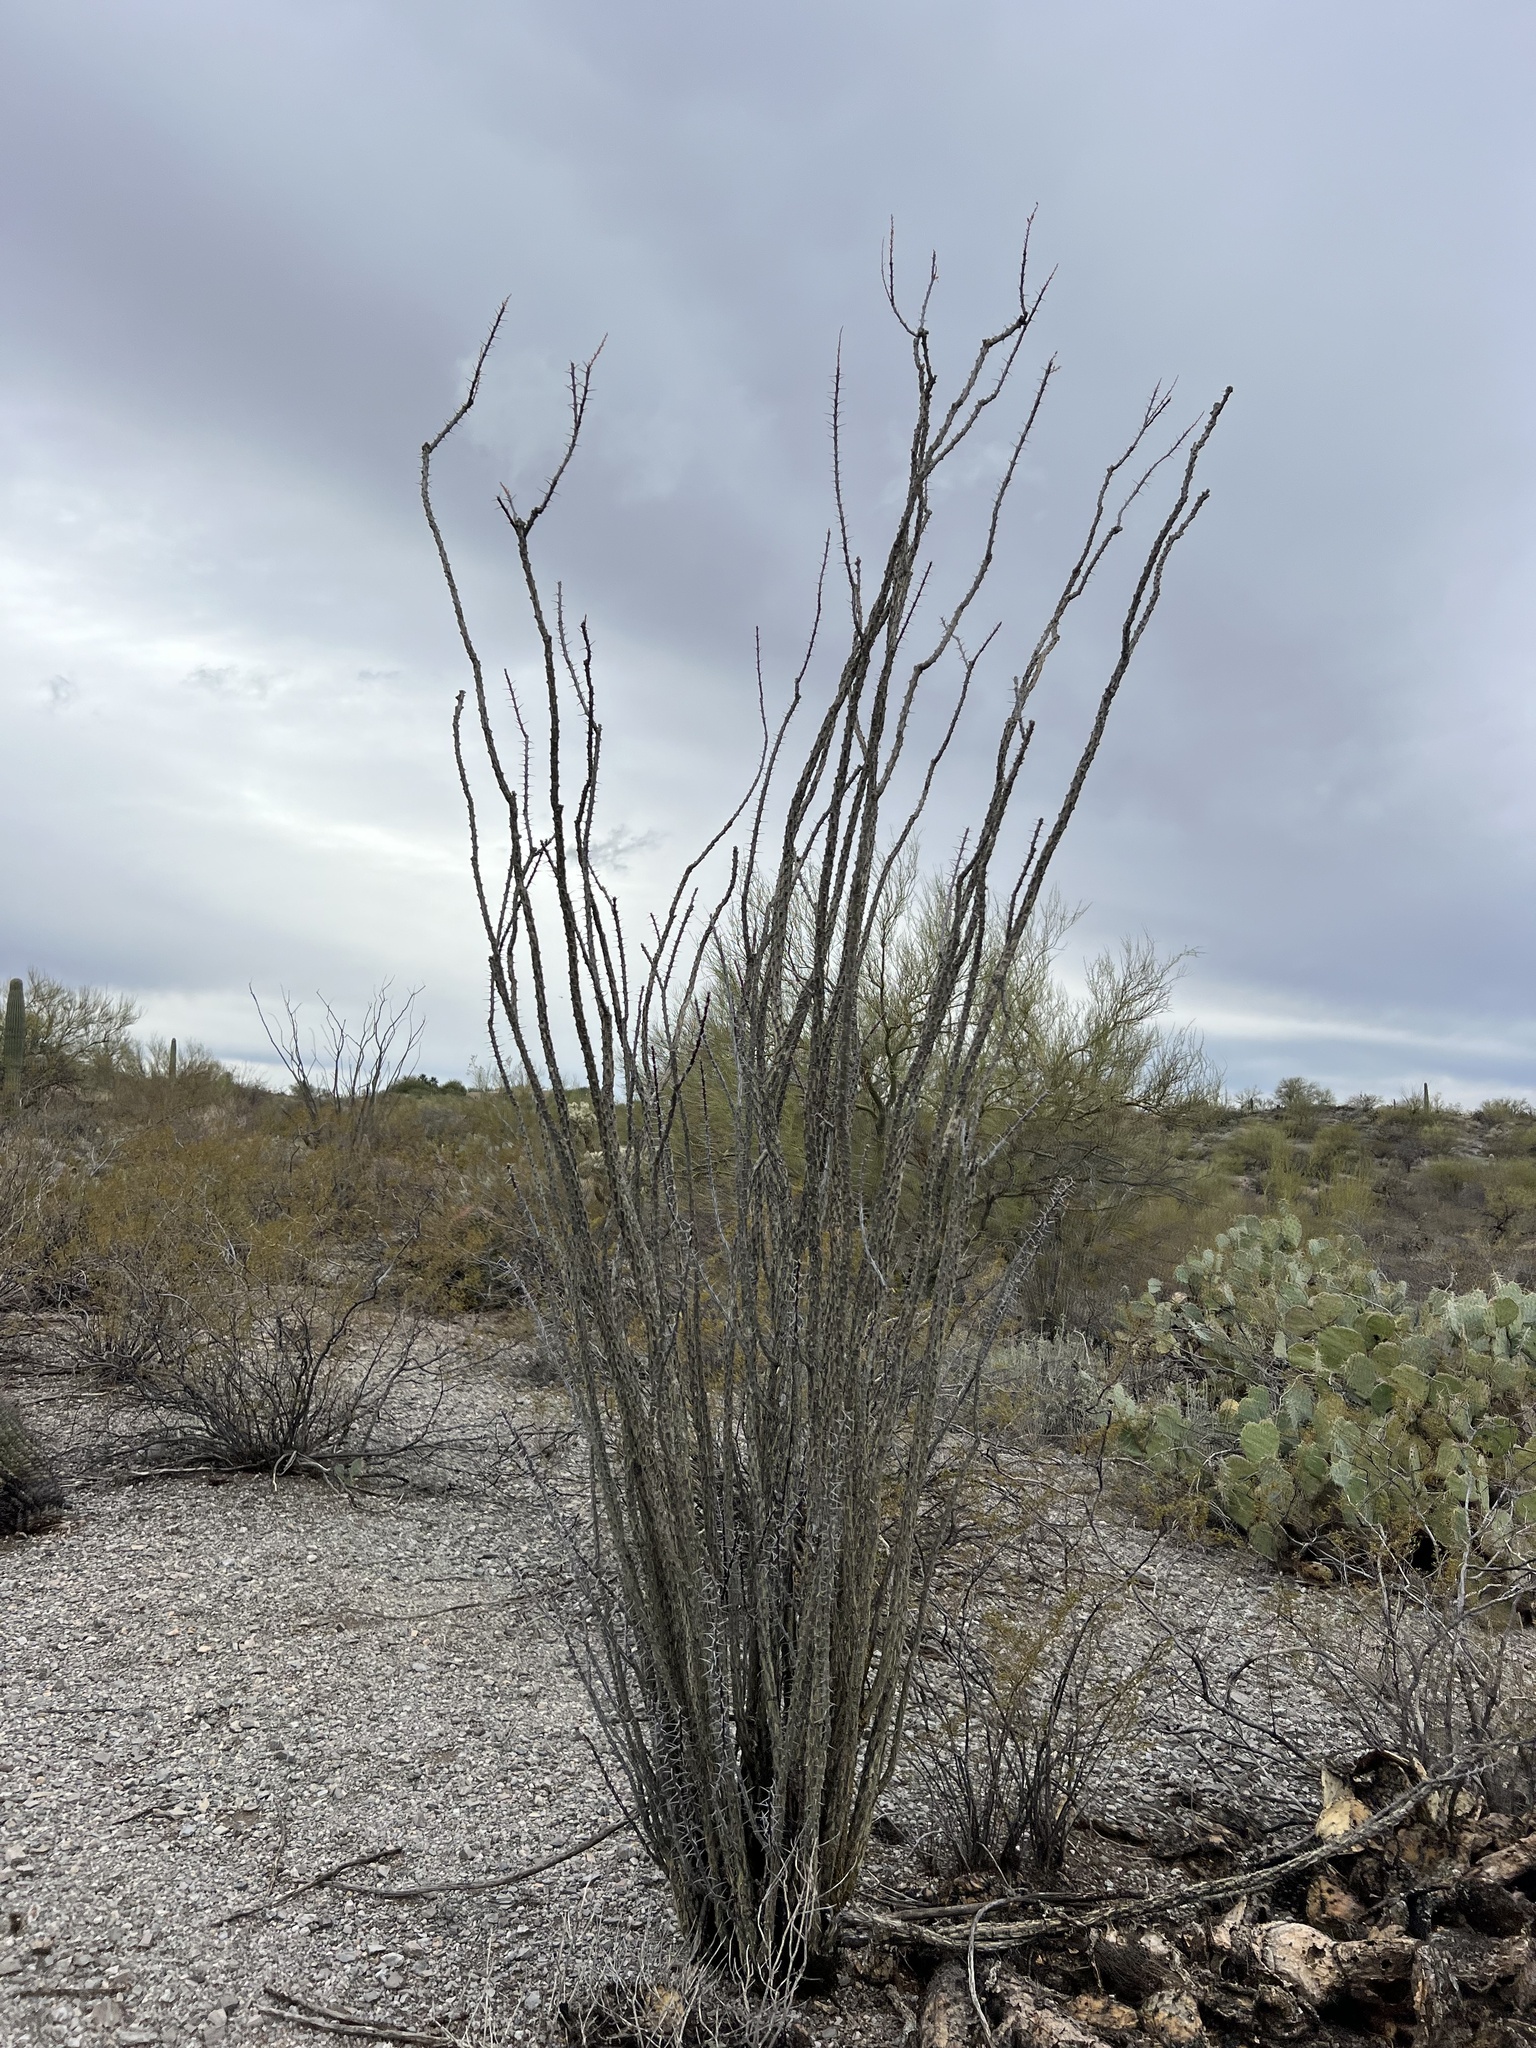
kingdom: Plantae
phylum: Tracheophyta
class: Magnoliopsida
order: Ericales
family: Fouquieriaceae
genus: Fouquieria
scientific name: Fouquieria splendens
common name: Vine-cactus
